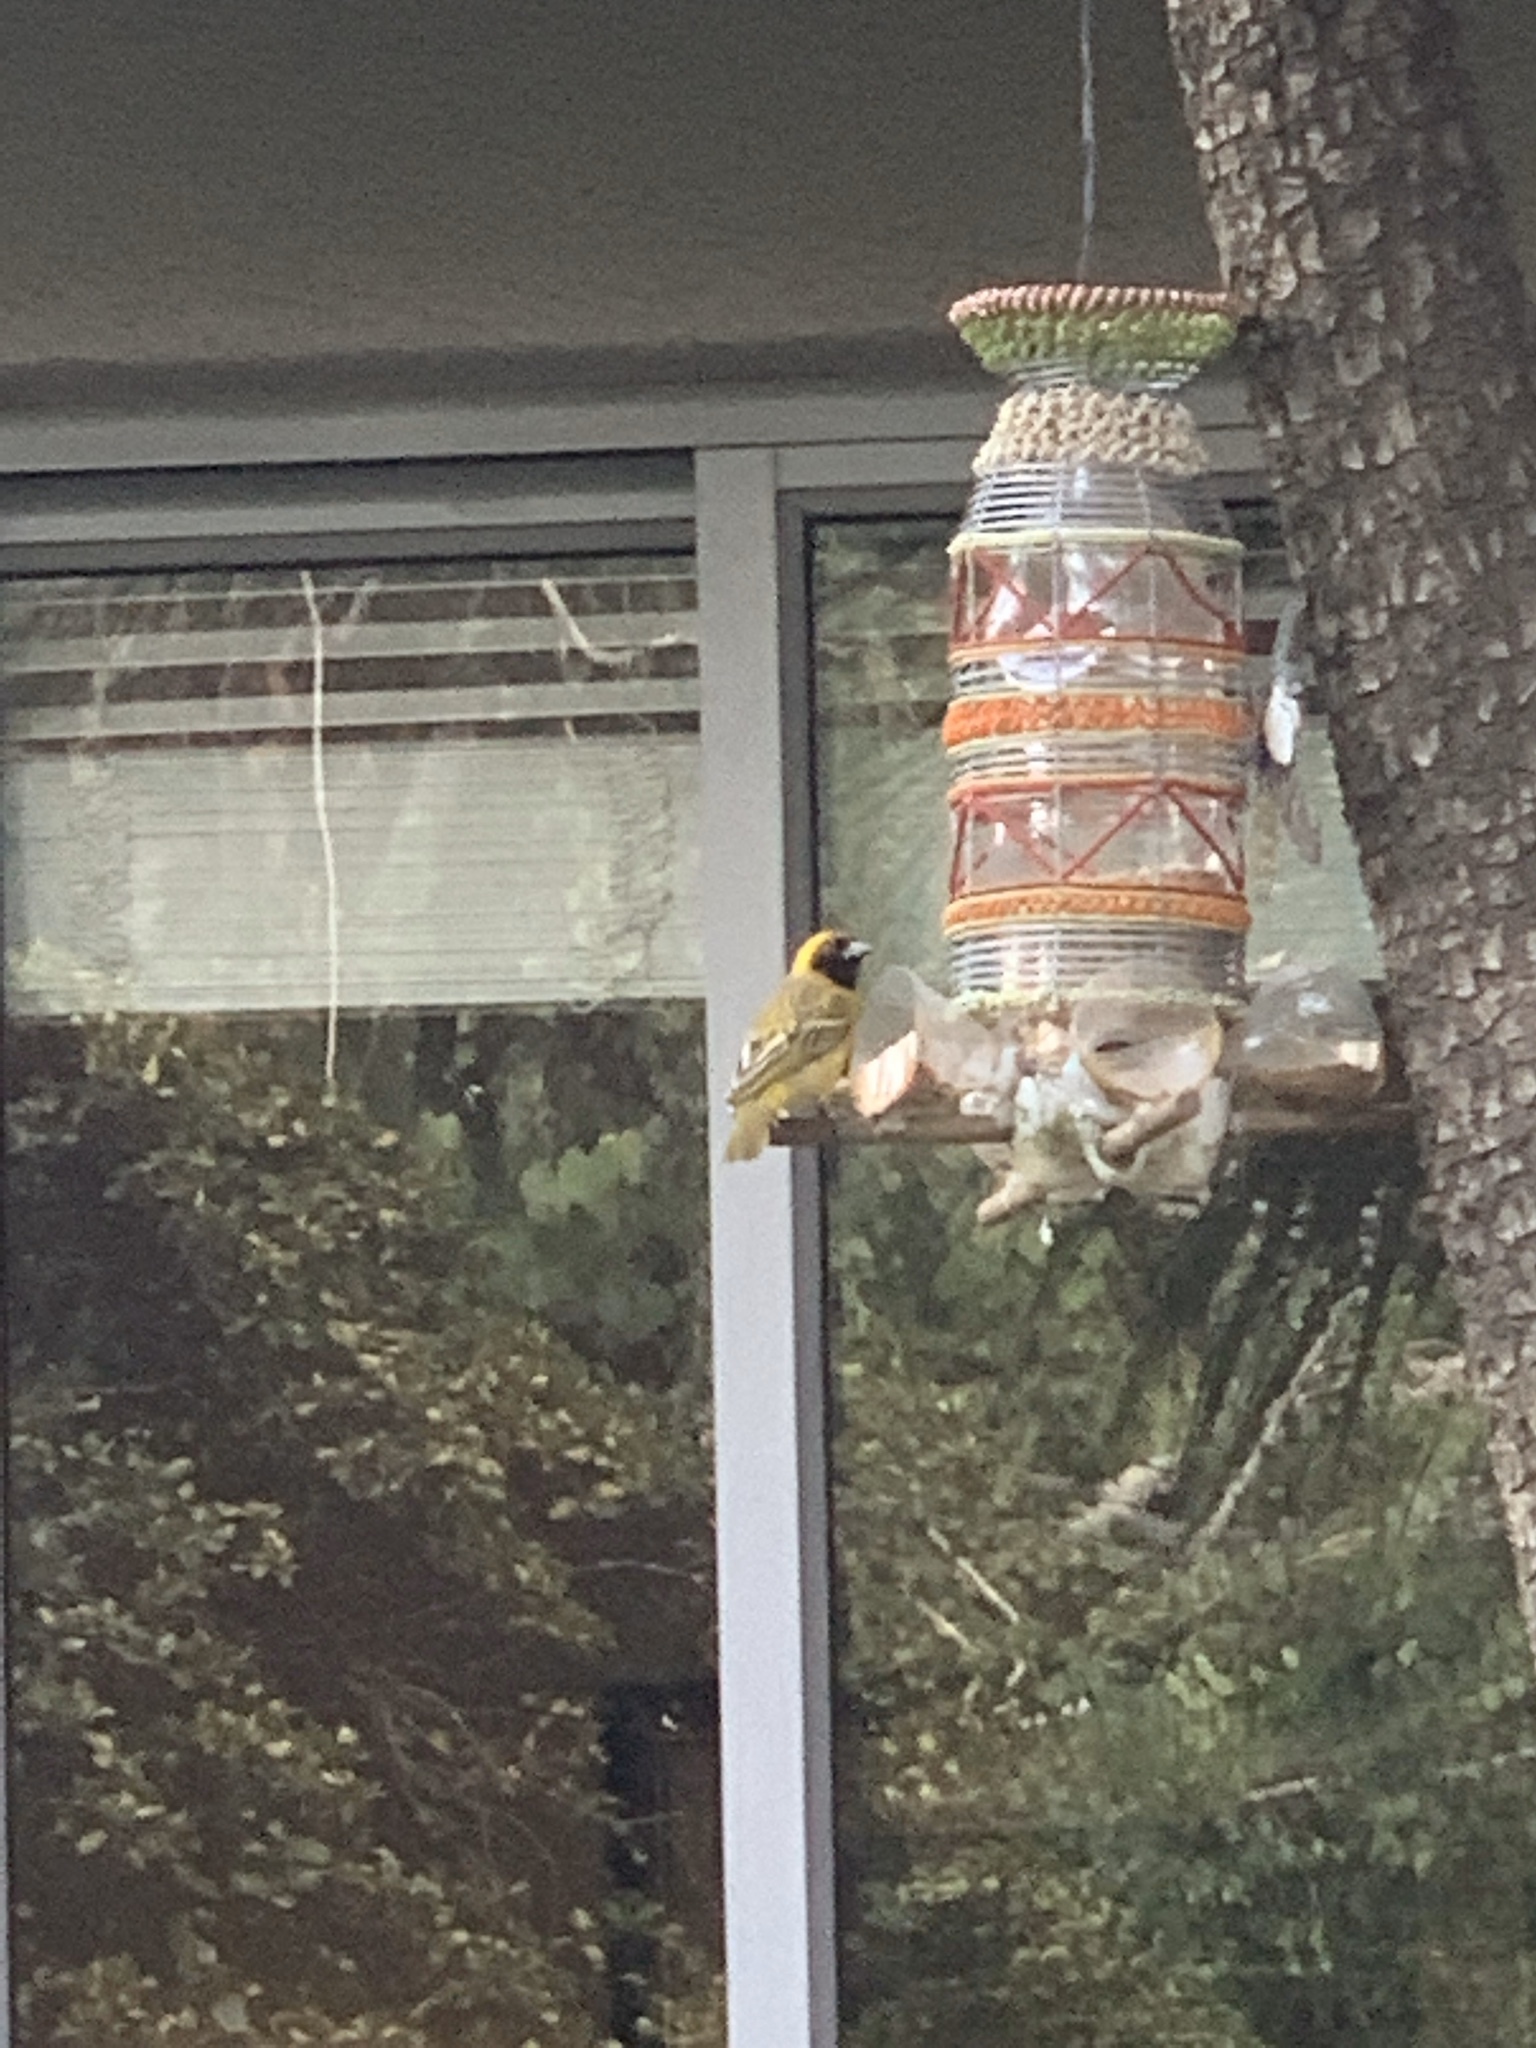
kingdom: Animalia
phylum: Chordata
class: Aves
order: Passeriformes
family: Ploceidae
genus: Ploceus
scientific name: Ploceus velatus
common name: Southern masked weaver
